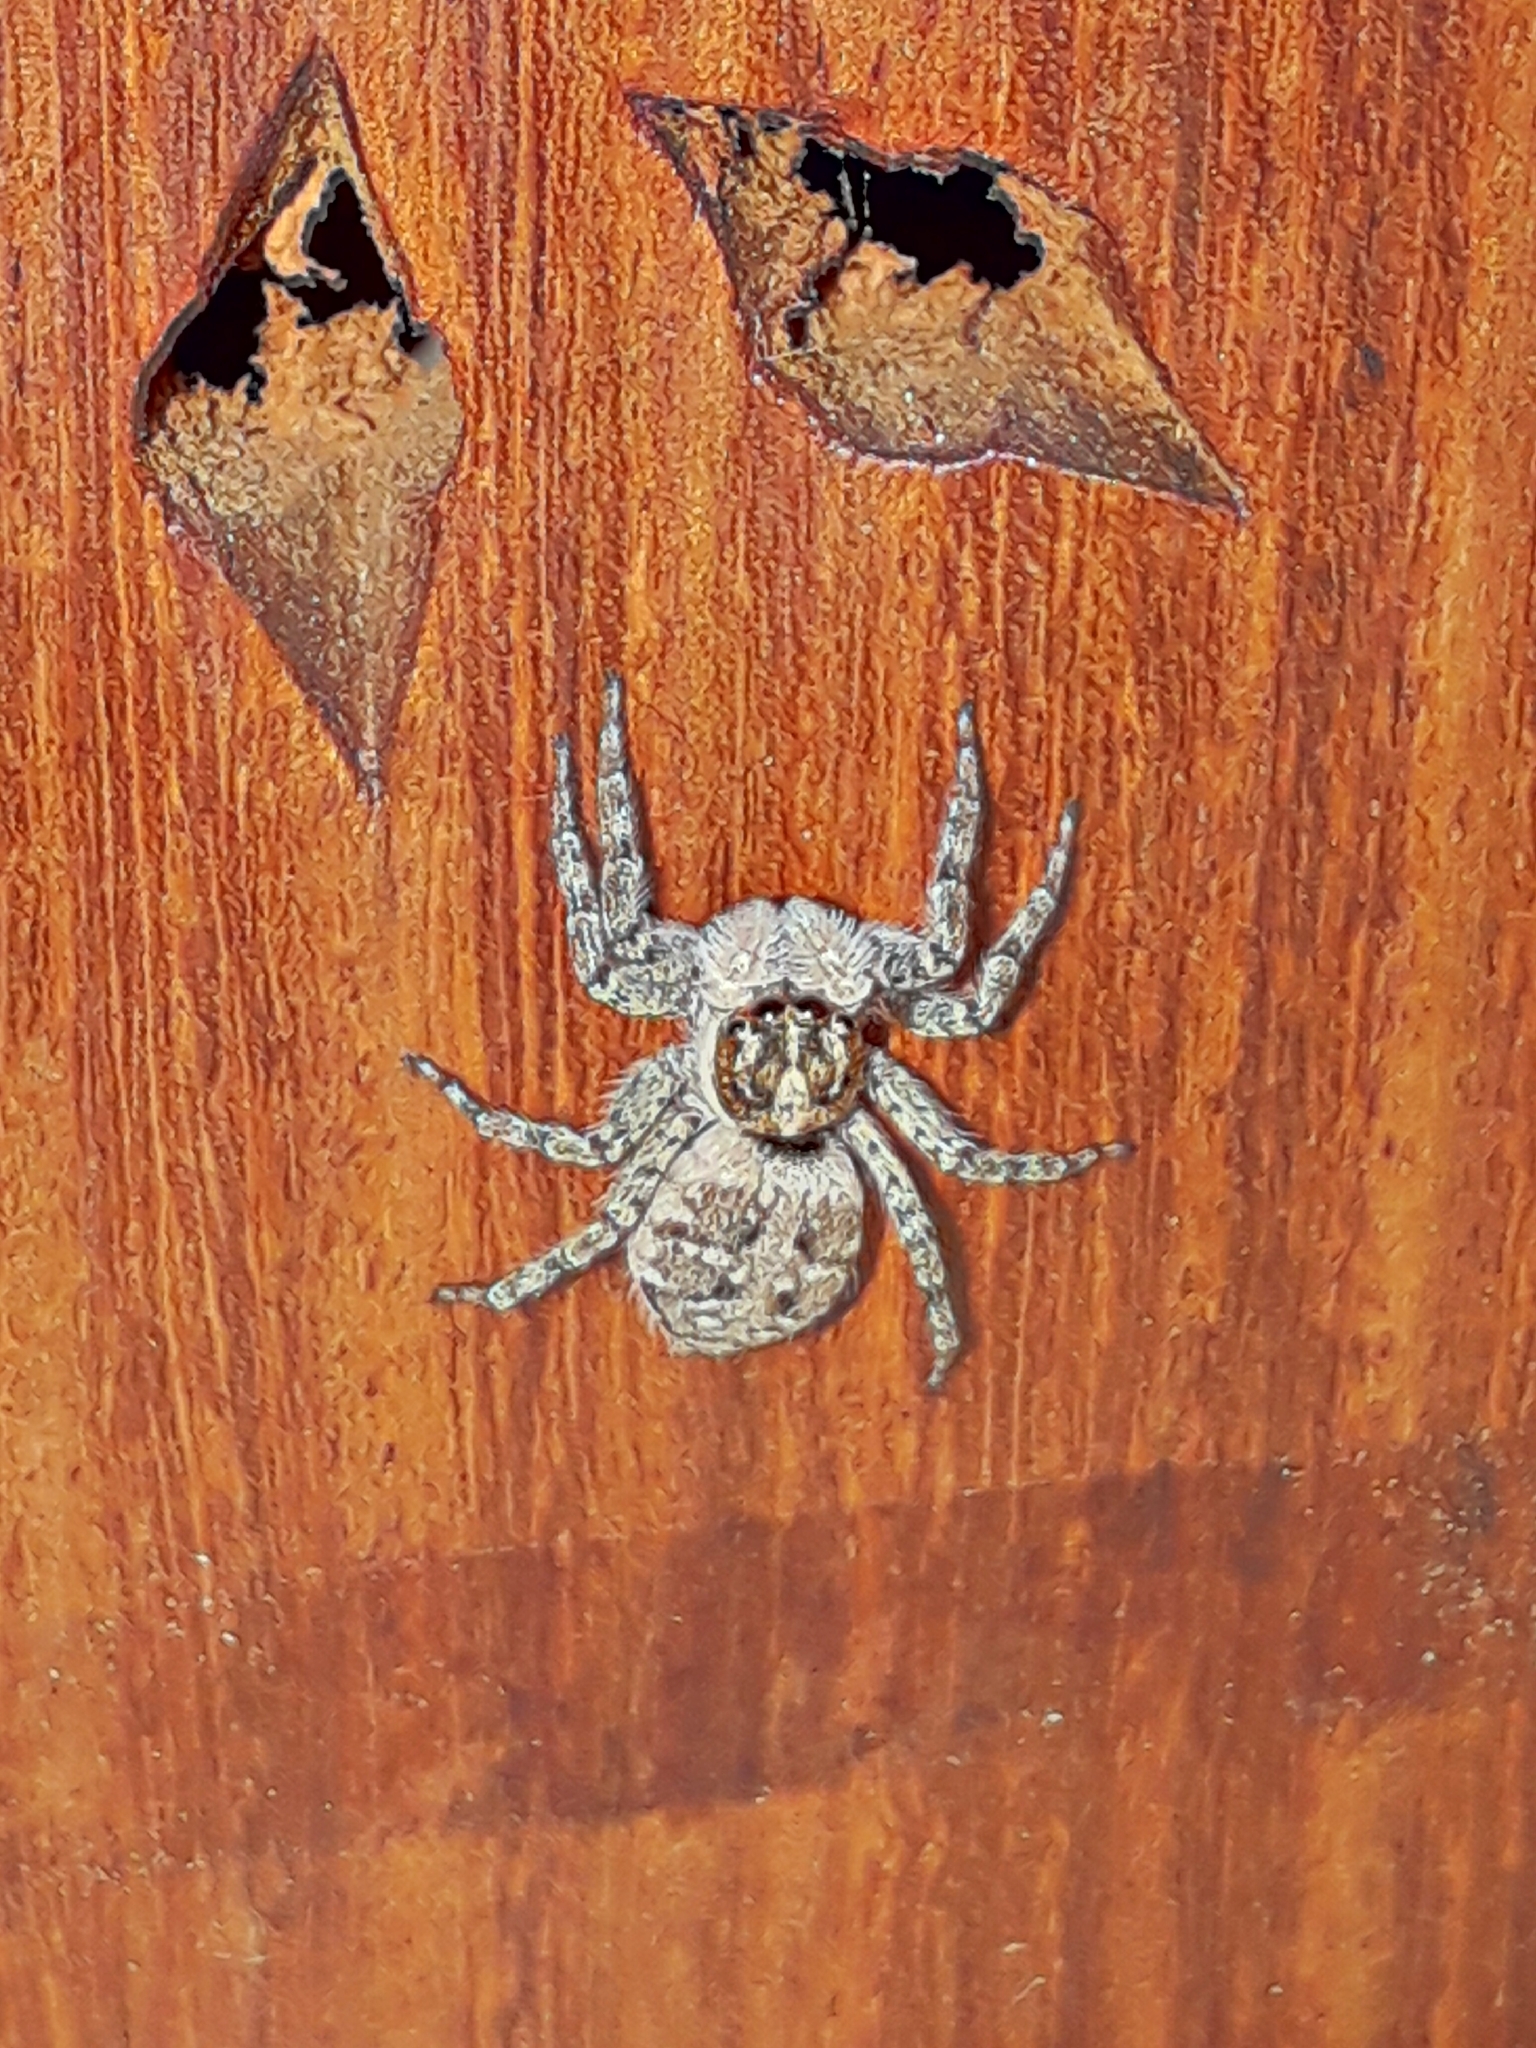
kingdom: Animalia
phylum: Arthropoda
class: Arachnida
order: Araneae
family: Salticidae
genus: Menemerus
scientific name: Menemerus semilimbatus
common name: Jumping spider
